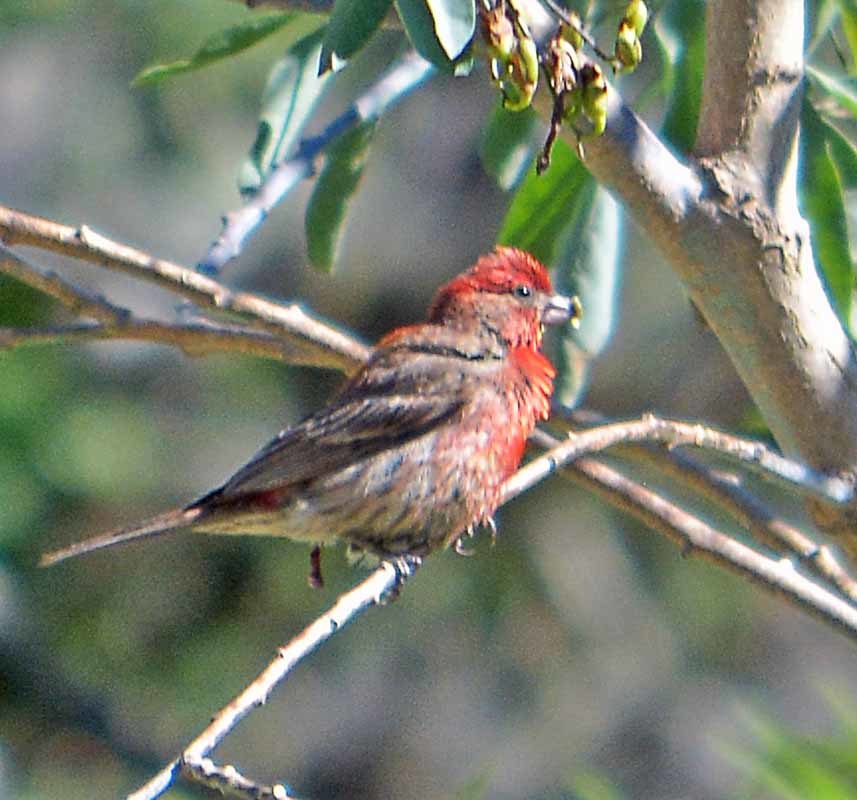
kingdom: Animalia
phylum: Chordata
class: Aves
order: Passeriformes
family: Fringillidae
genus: Haemorhous
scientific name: Haemorhous mexicanus
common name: House finch
